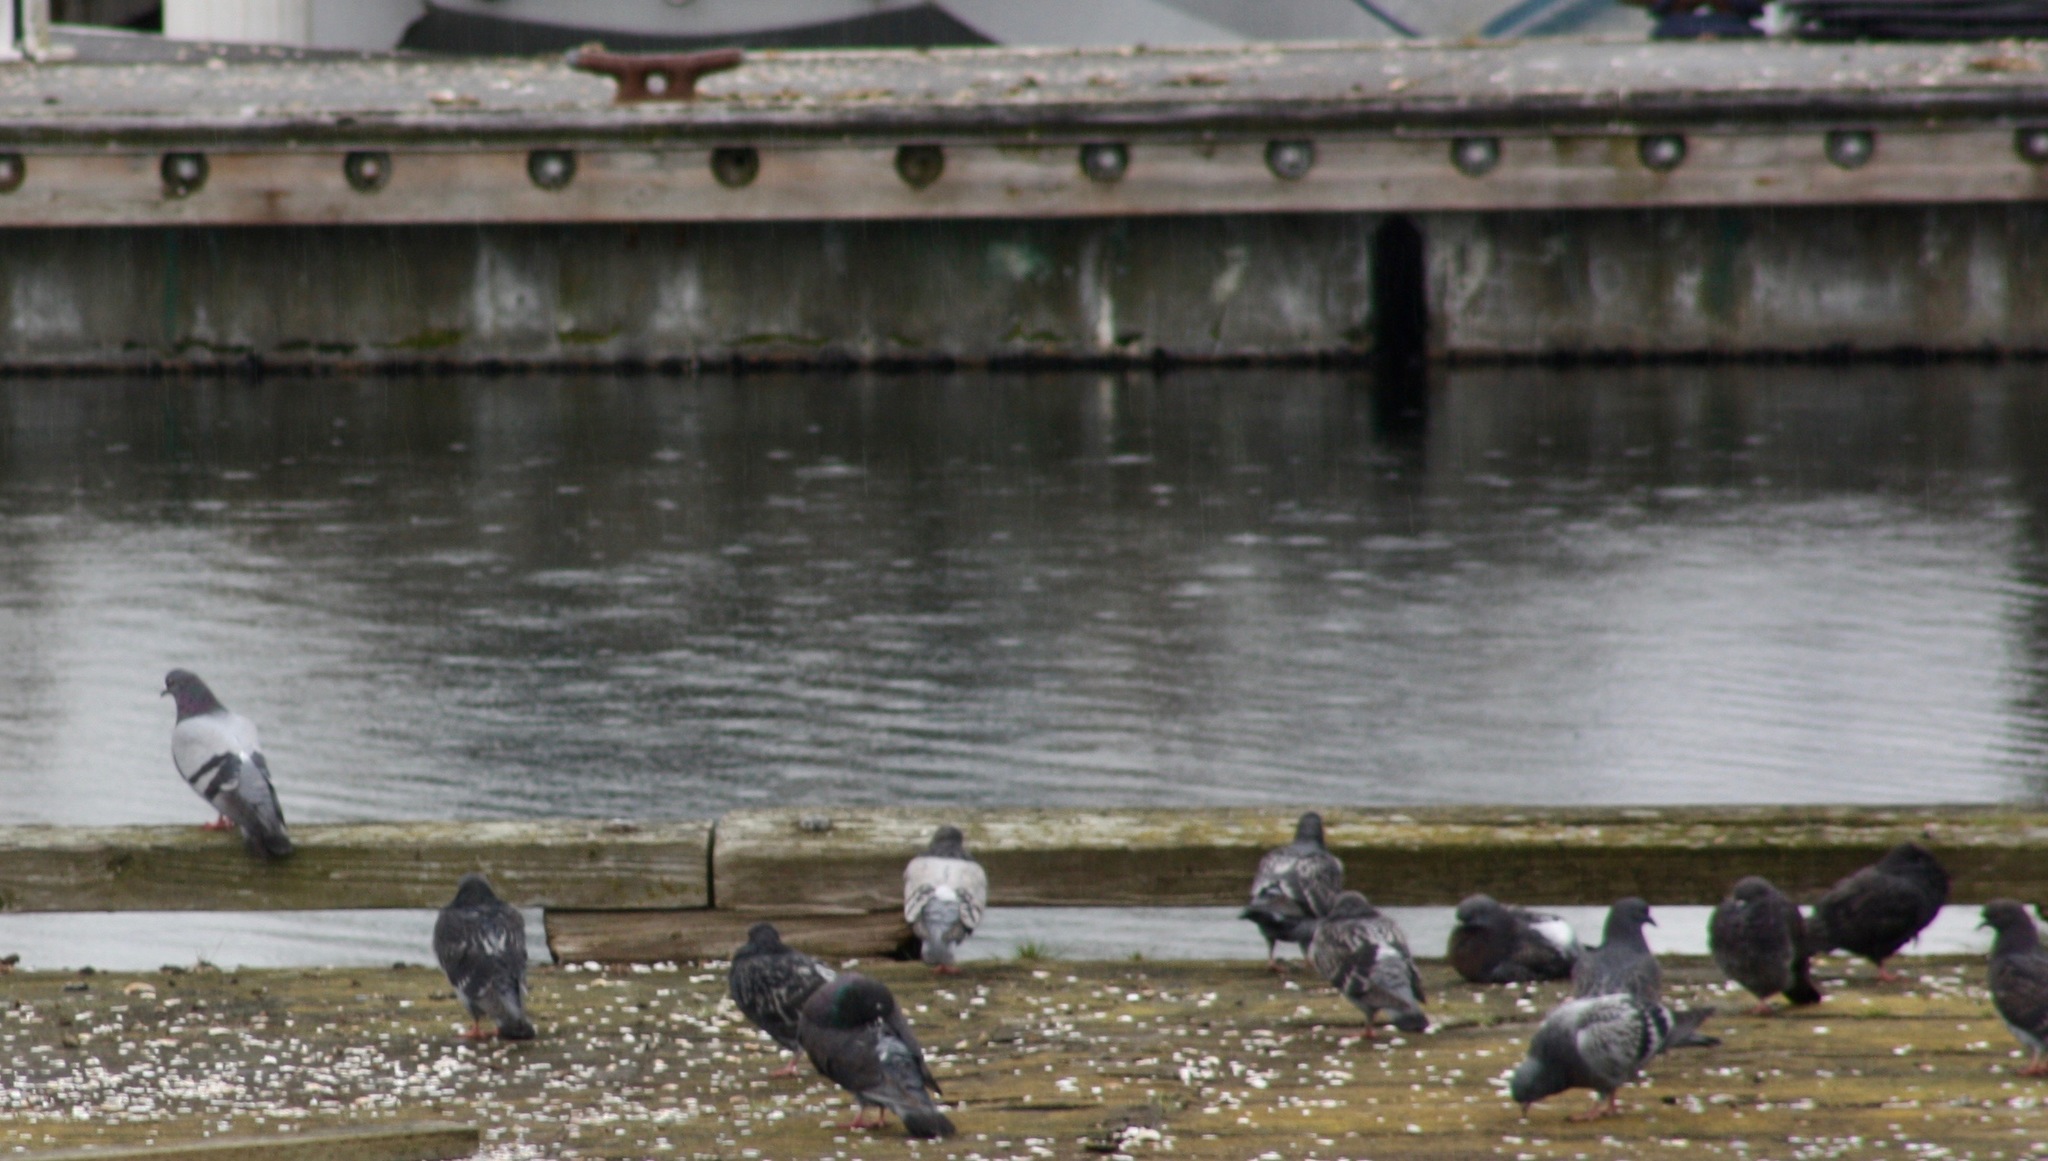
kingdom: Animalia
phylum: Chordata
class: Aves
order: Columbiformes
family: Columbidae
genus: Columba
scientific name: Columba livia
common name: Rock pigeon
